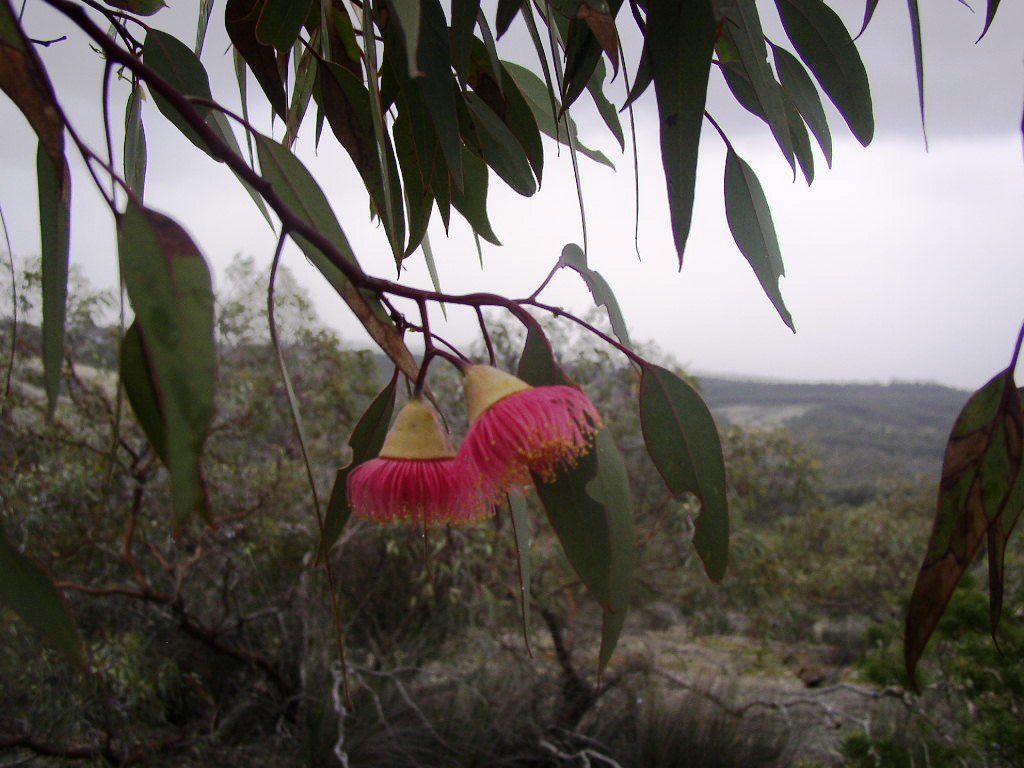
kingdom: Plantae
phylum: Tracheophyta
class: Magnoliopsida
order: Myrtales
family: Myrtaceae
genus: Eucalyptus
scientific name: Eucalyptus caesia
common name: Silver princess
